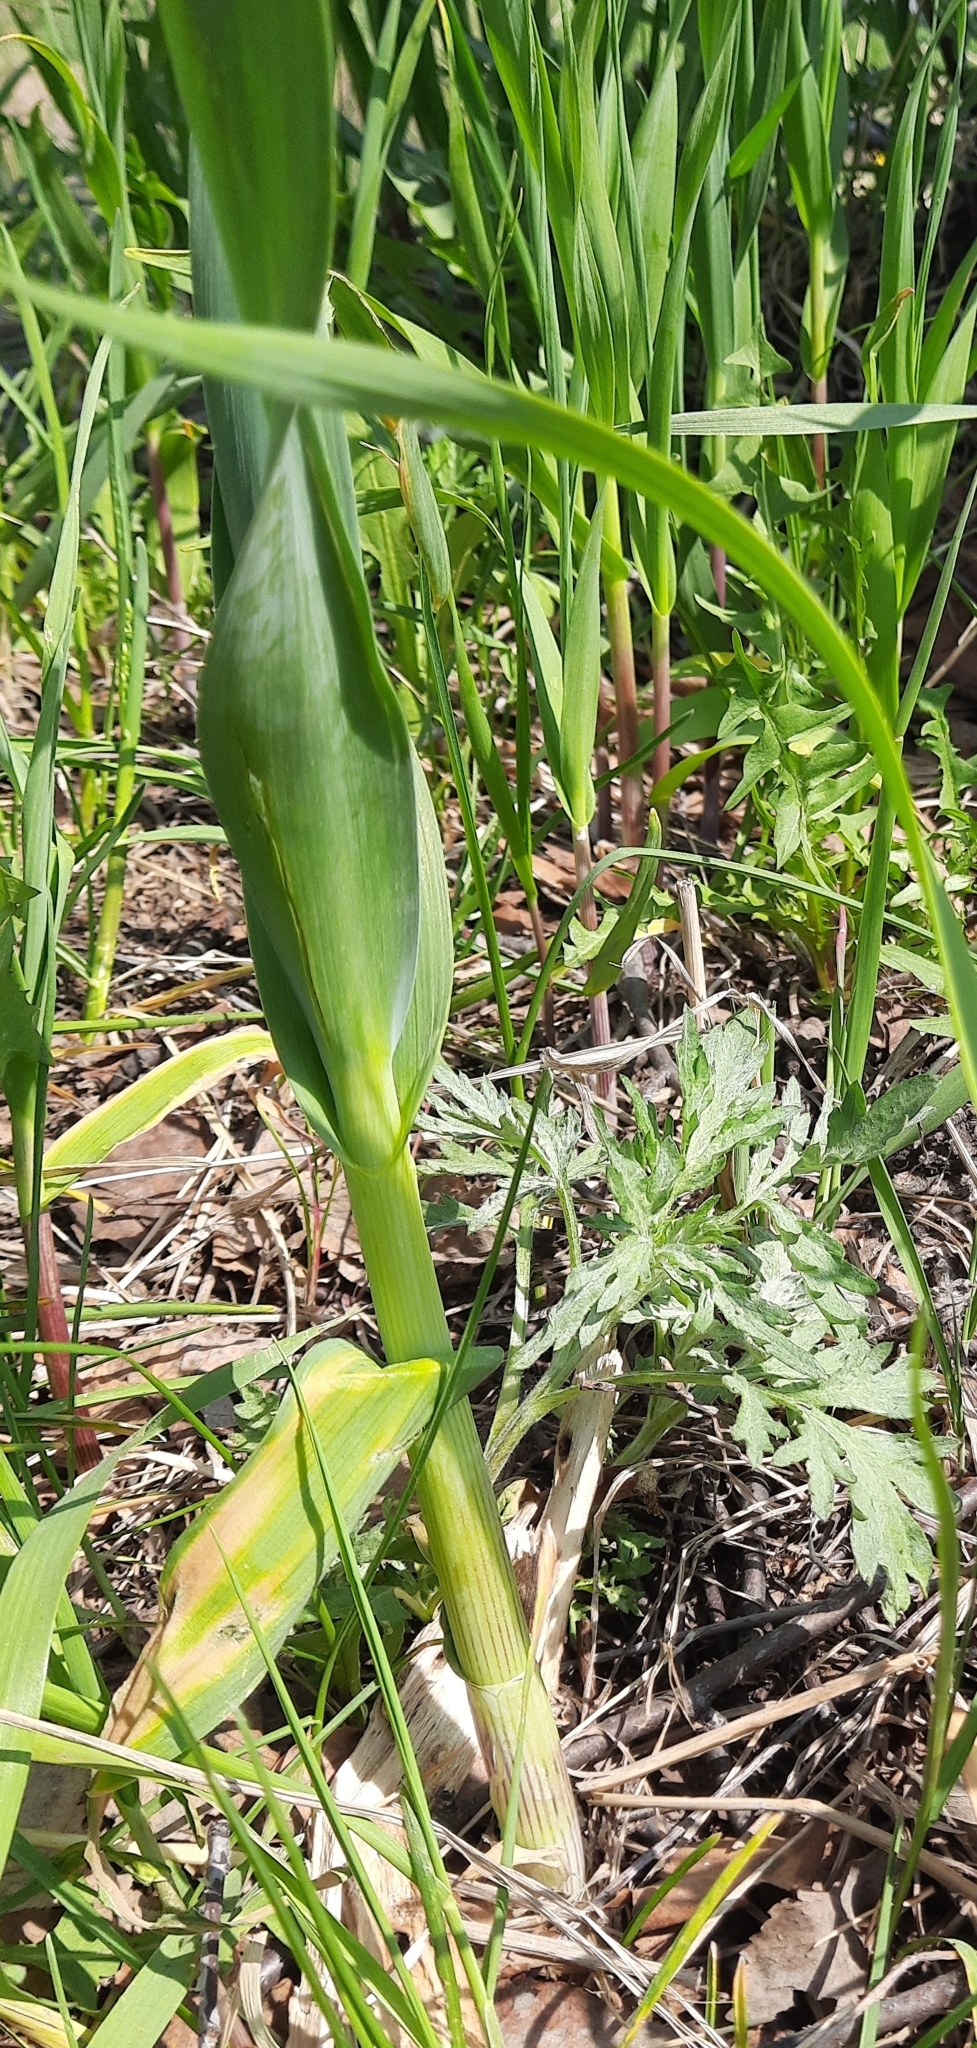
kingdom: Plantae
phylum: Tracheophyta
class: Liliopsida
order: Asparagales
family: Amaryllidaceae
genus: Allium
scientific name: Allium obliquum
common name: Oblique onion
